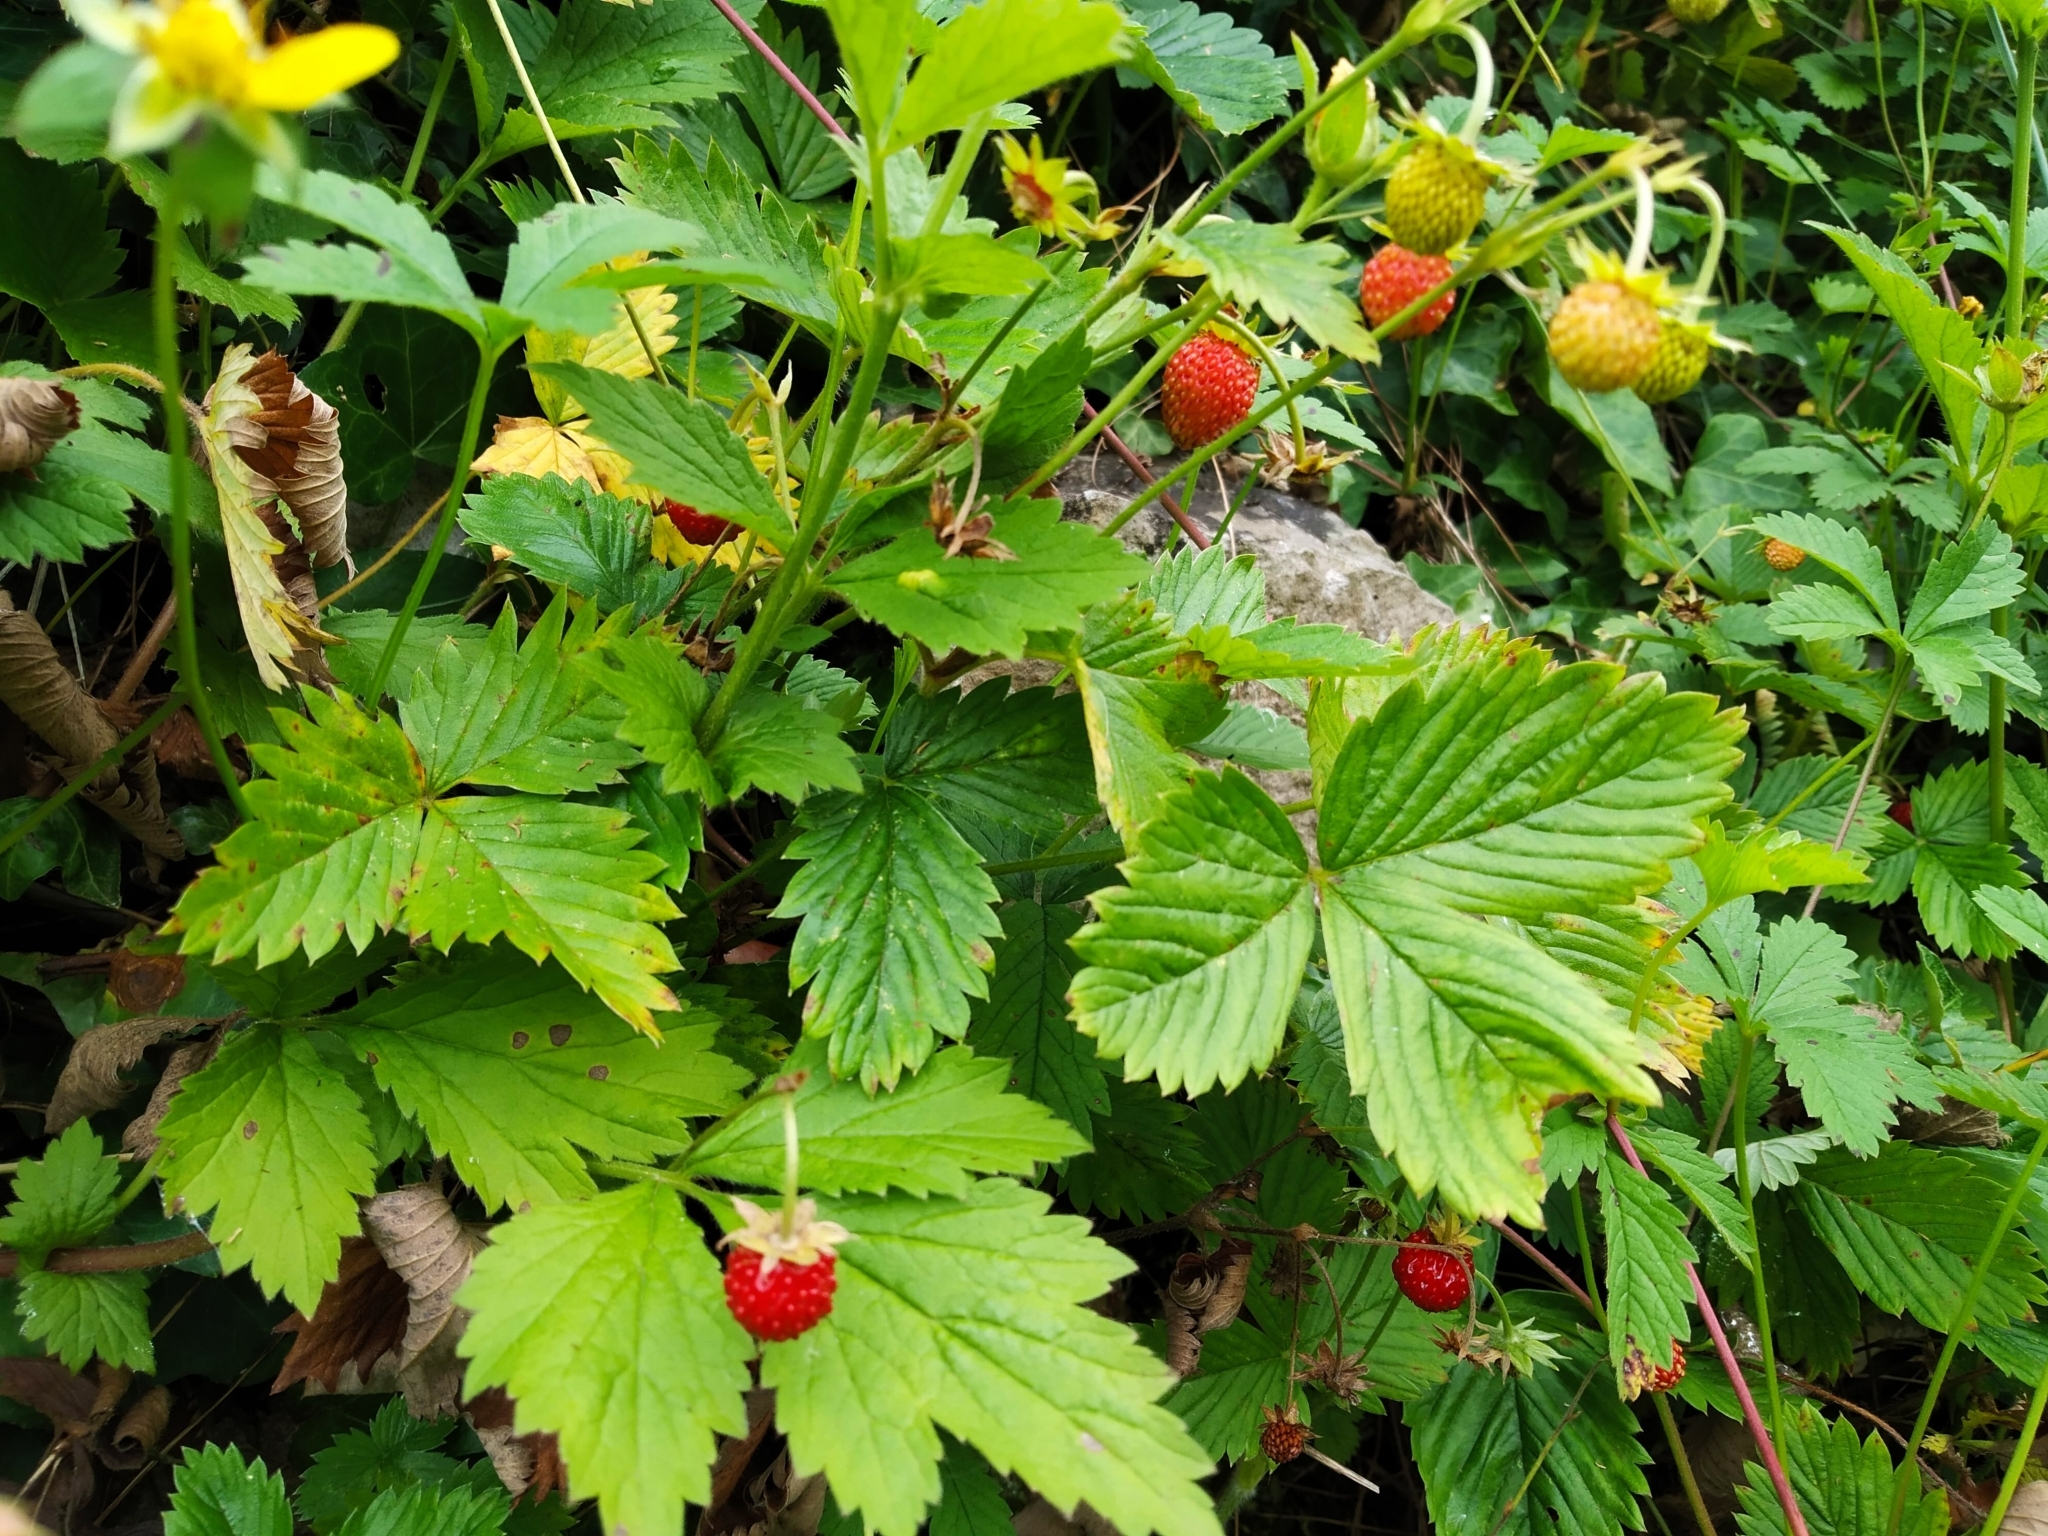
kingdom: Plantae
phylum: Tracheophyta
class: Magnoliopsida
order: Rosales
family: Rosaceae
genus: Fragaria
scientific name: Fragaria vesca
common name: Wild strawberry
